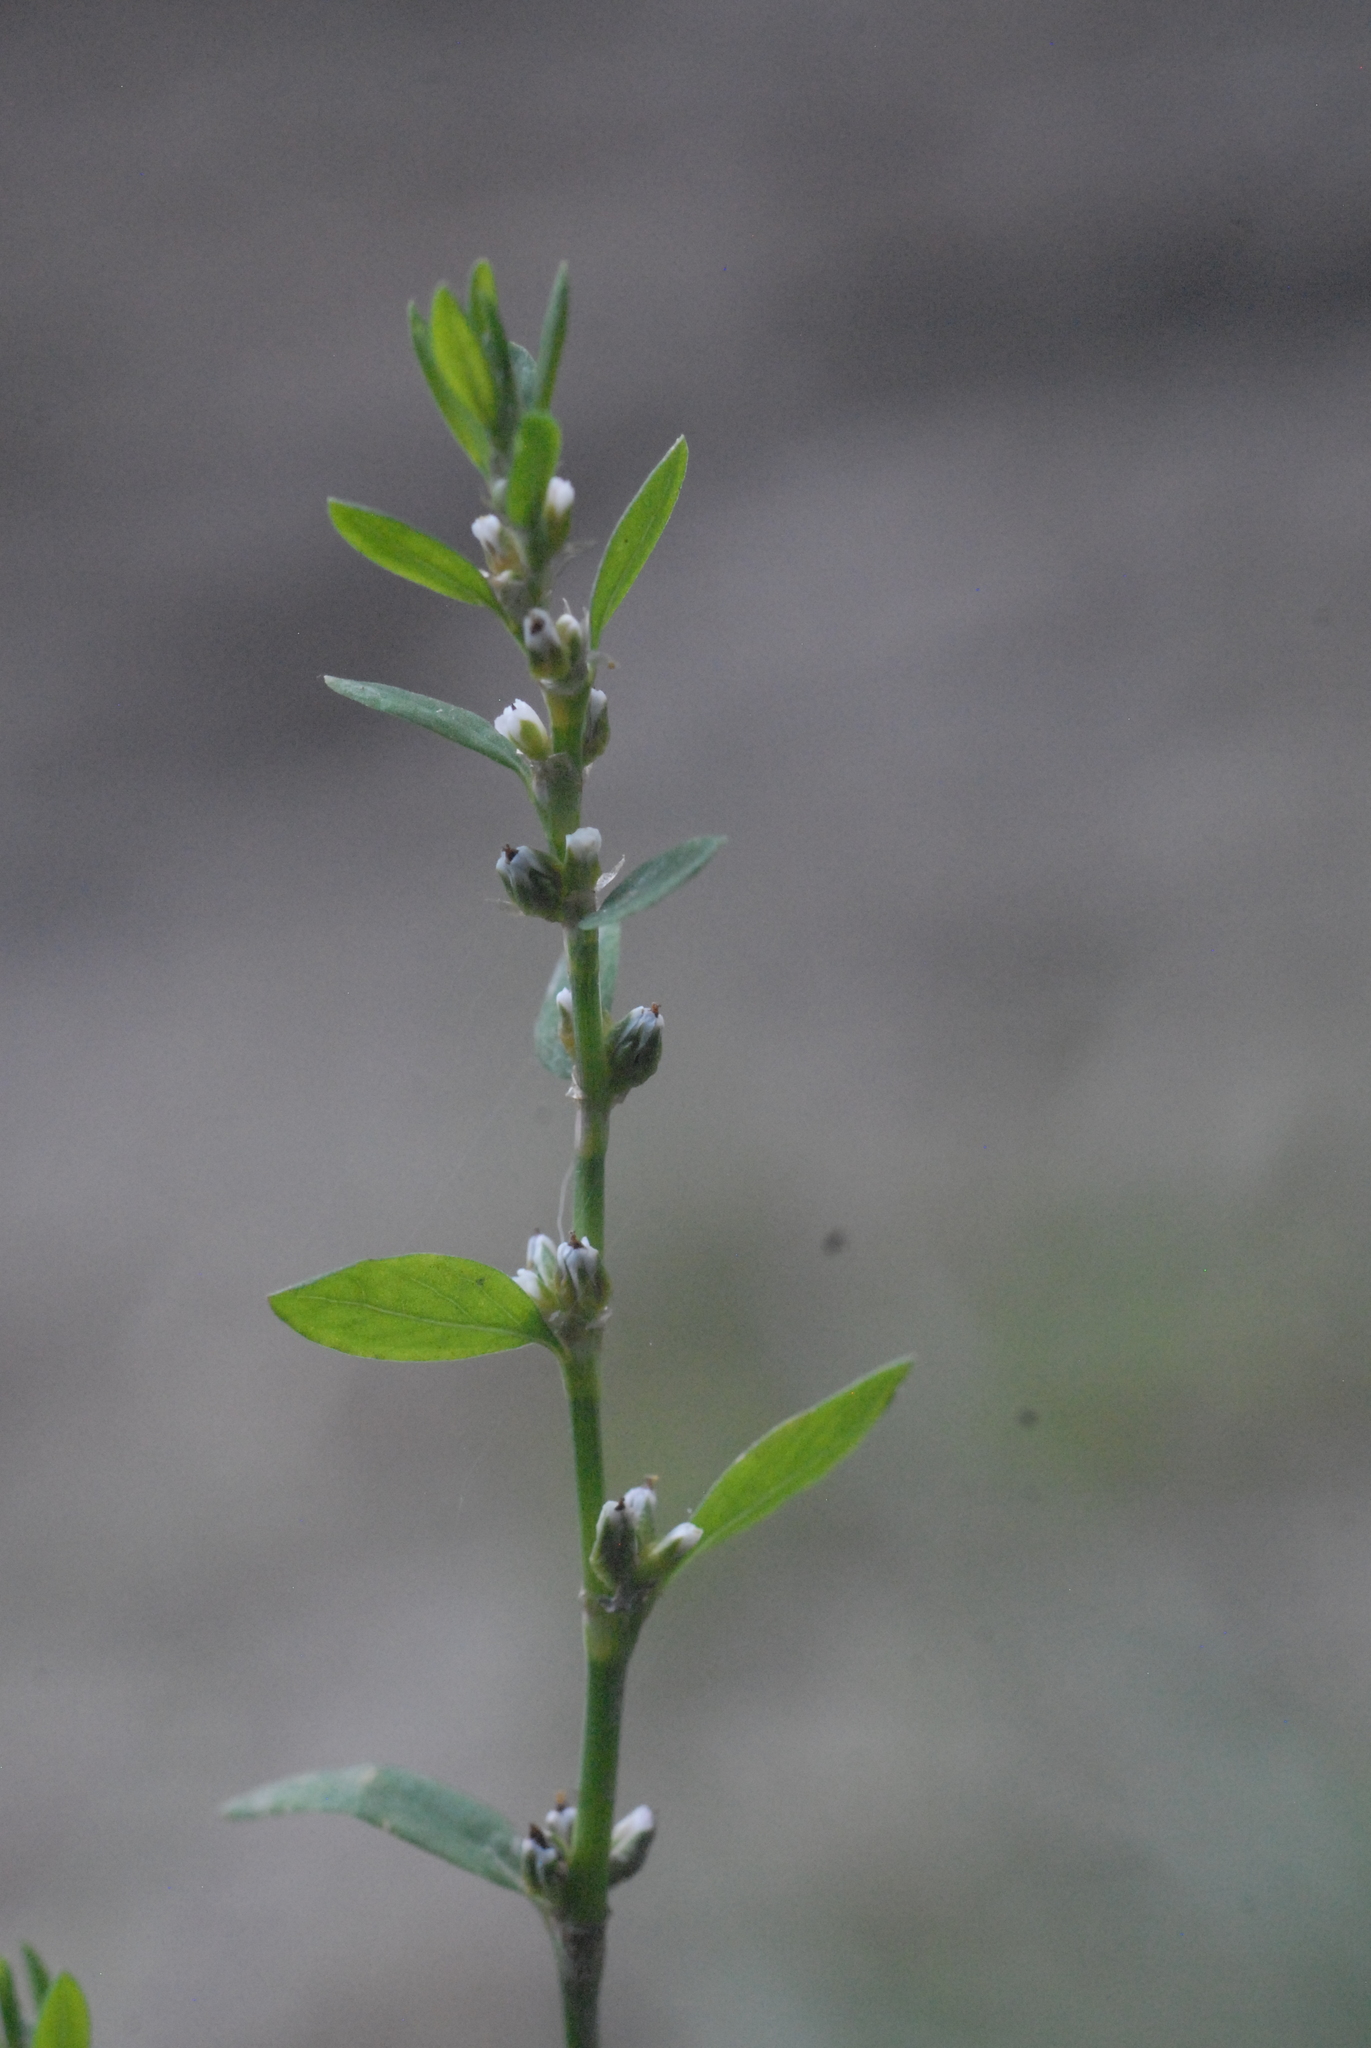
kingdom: Plantae
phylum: Tracheophyta
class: Magnoliopsida
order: Caryophyllales
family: Polygonaceae
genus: Polygonum
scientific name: Polygonum
